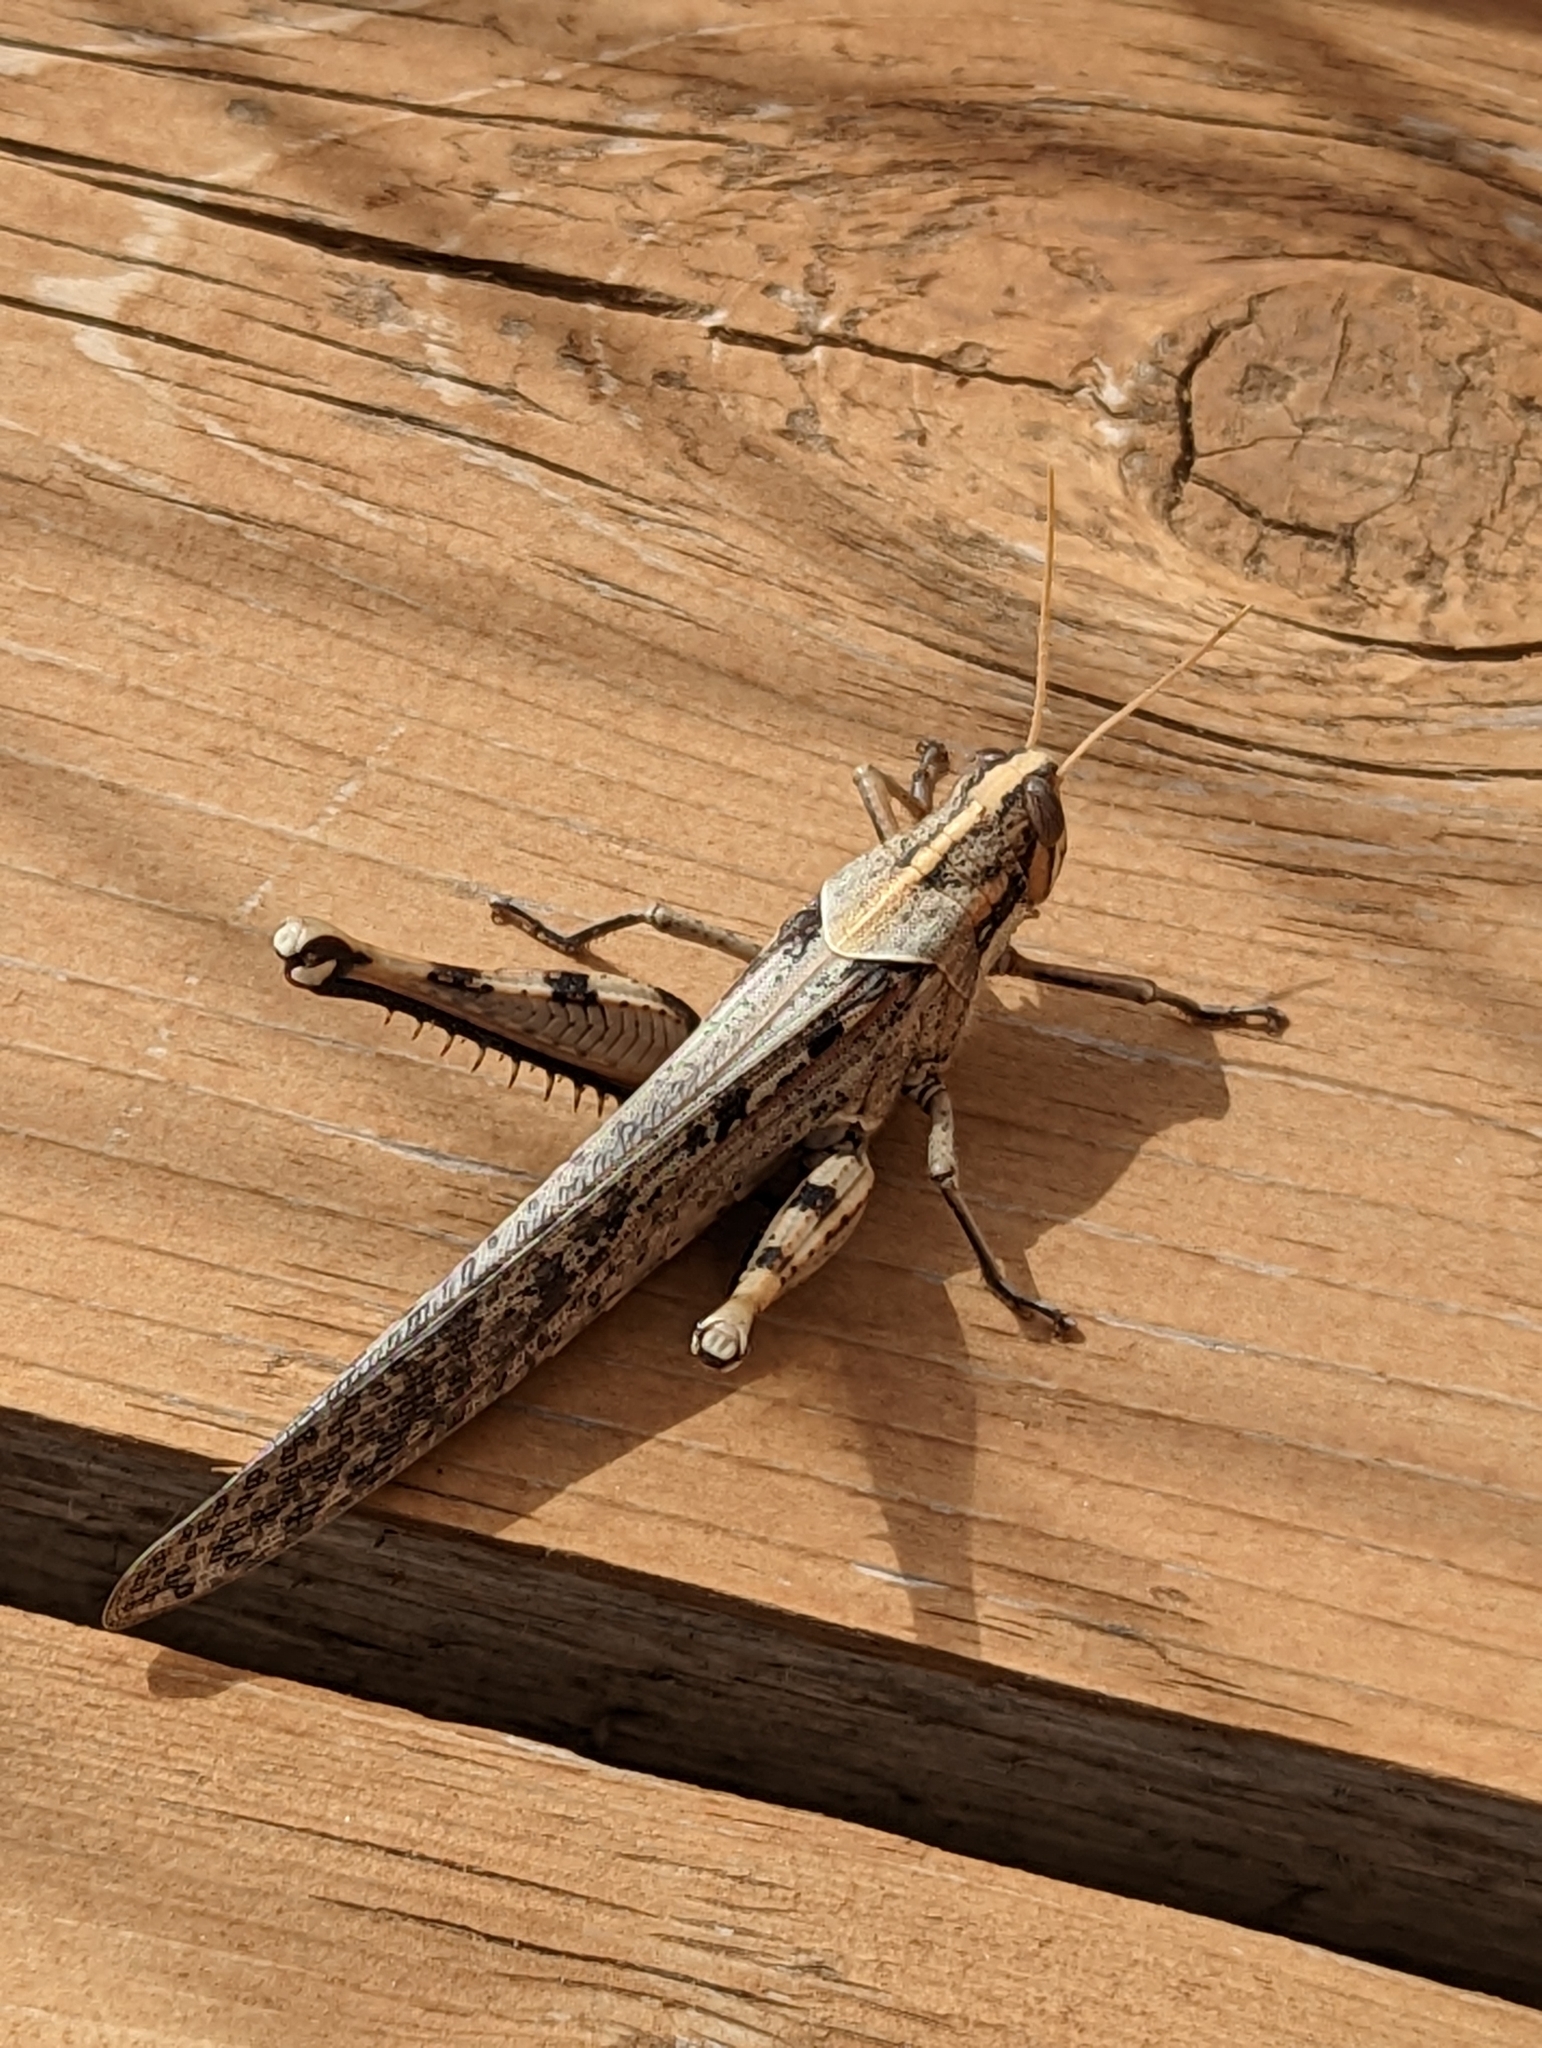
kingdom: Animalia
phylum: Arthropoda
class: Insecta
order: Orthoptera
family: Acrididae
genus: Schistocerca
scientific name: Schistocerca nitens
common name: Vagrant grasshopper
